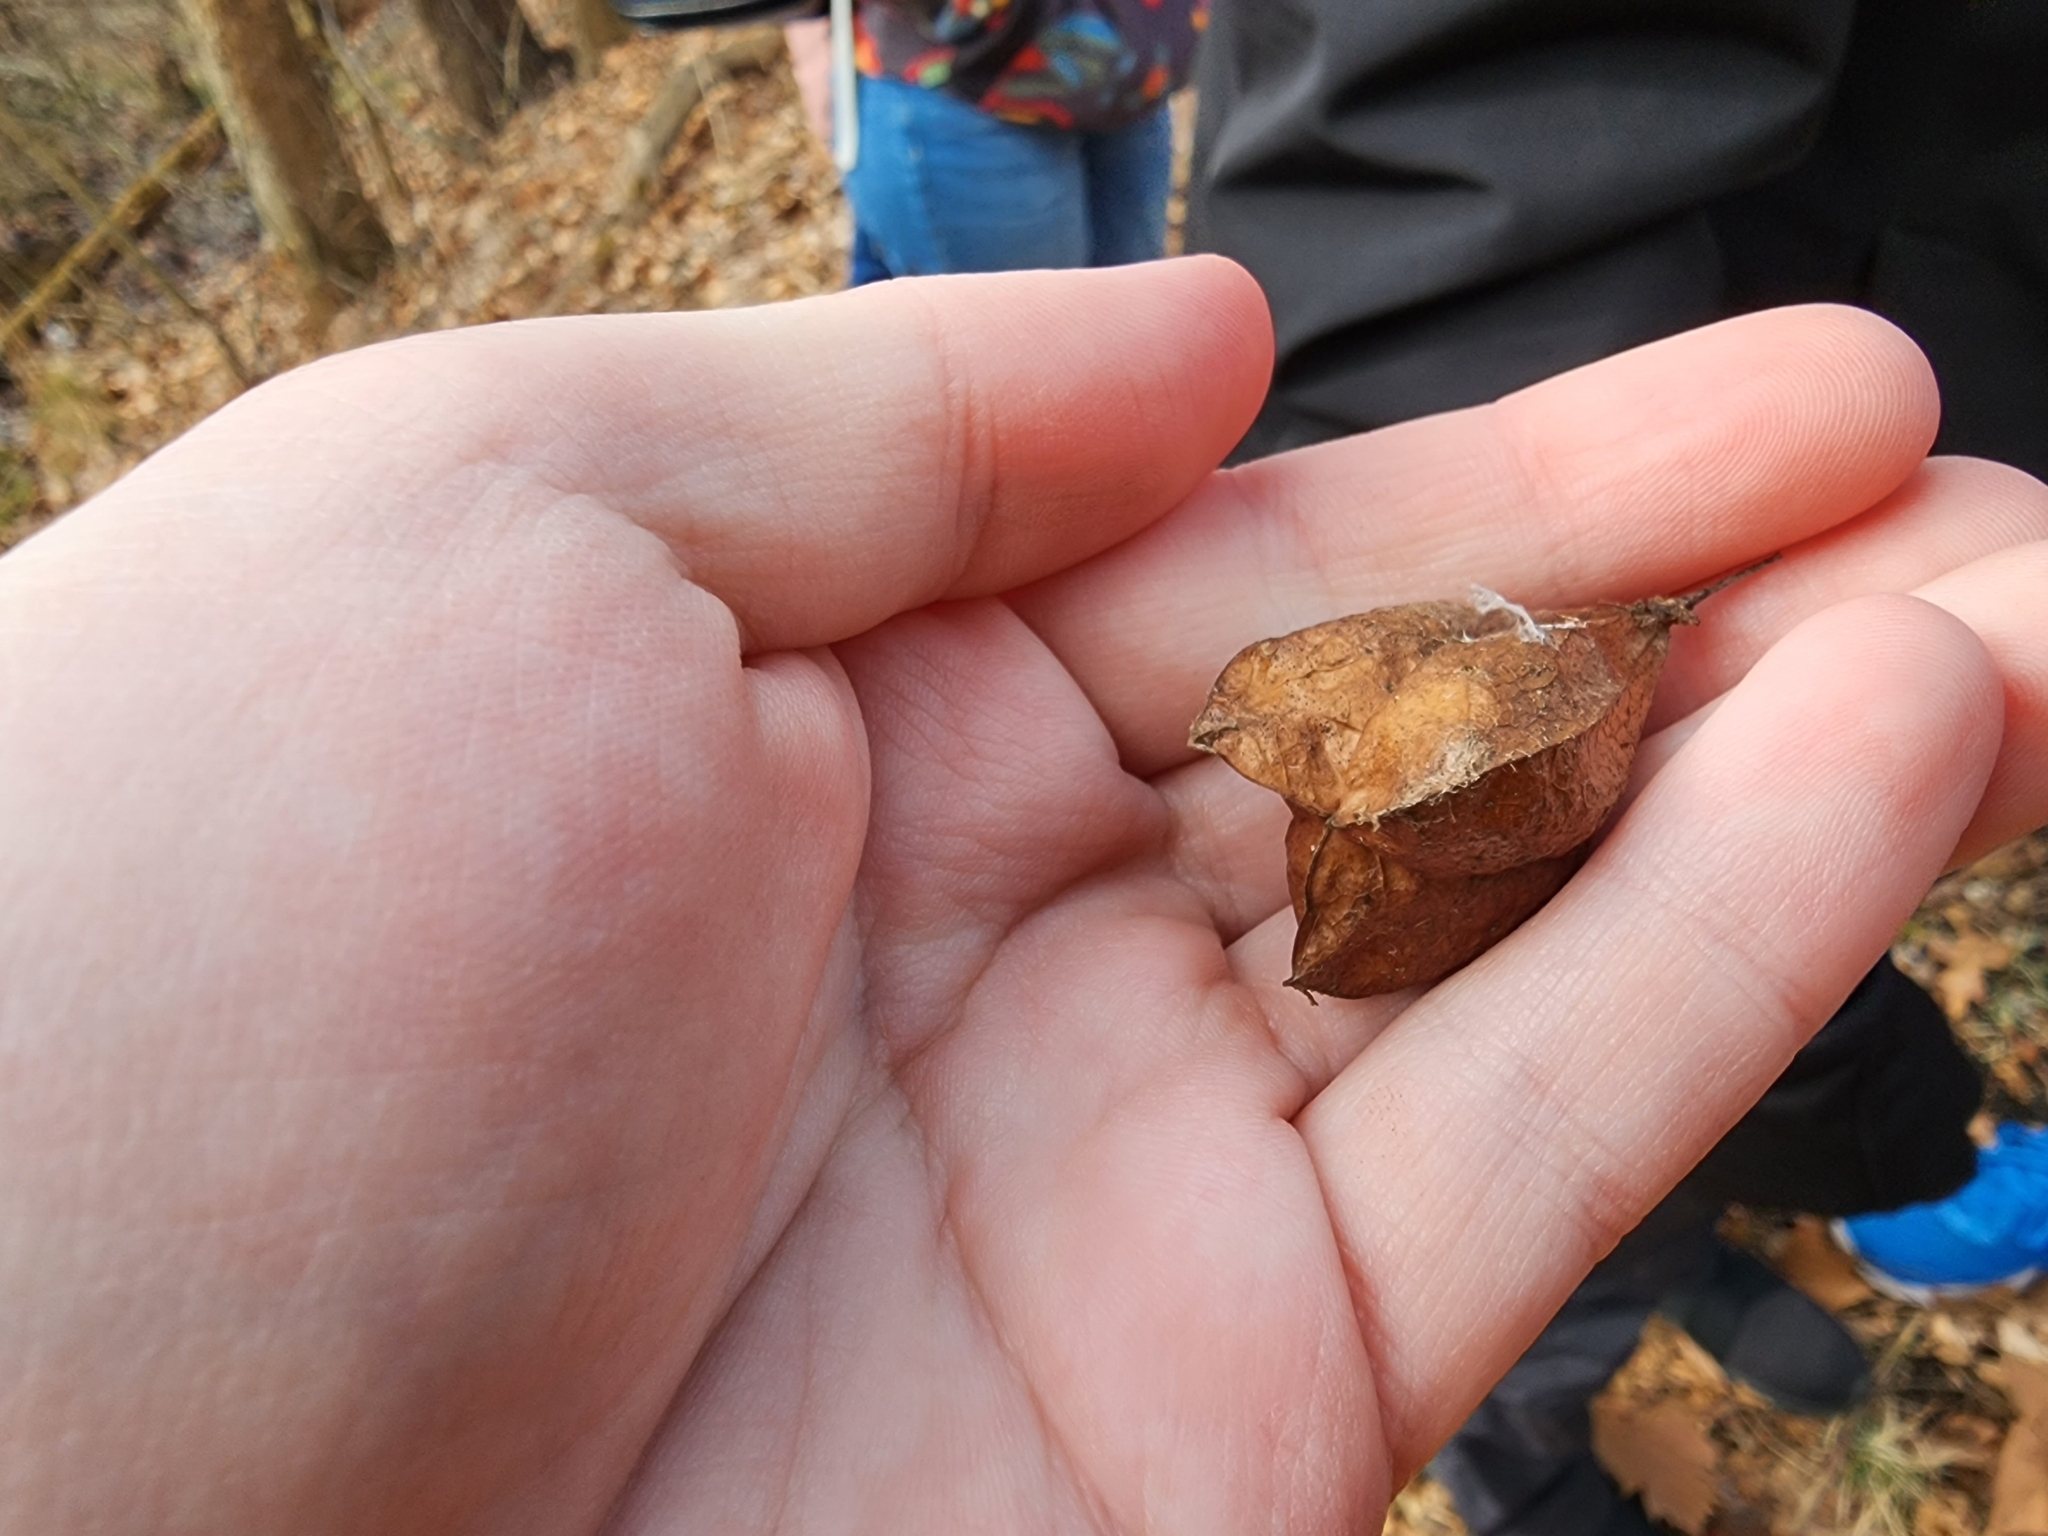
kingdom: Plantae
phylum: Tracheophyta
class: Magnoliopsida
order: Crossosomatales
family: Staphyleaceae
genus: Staphylea
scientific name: Staphylea trifolia
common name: American bladdernut
